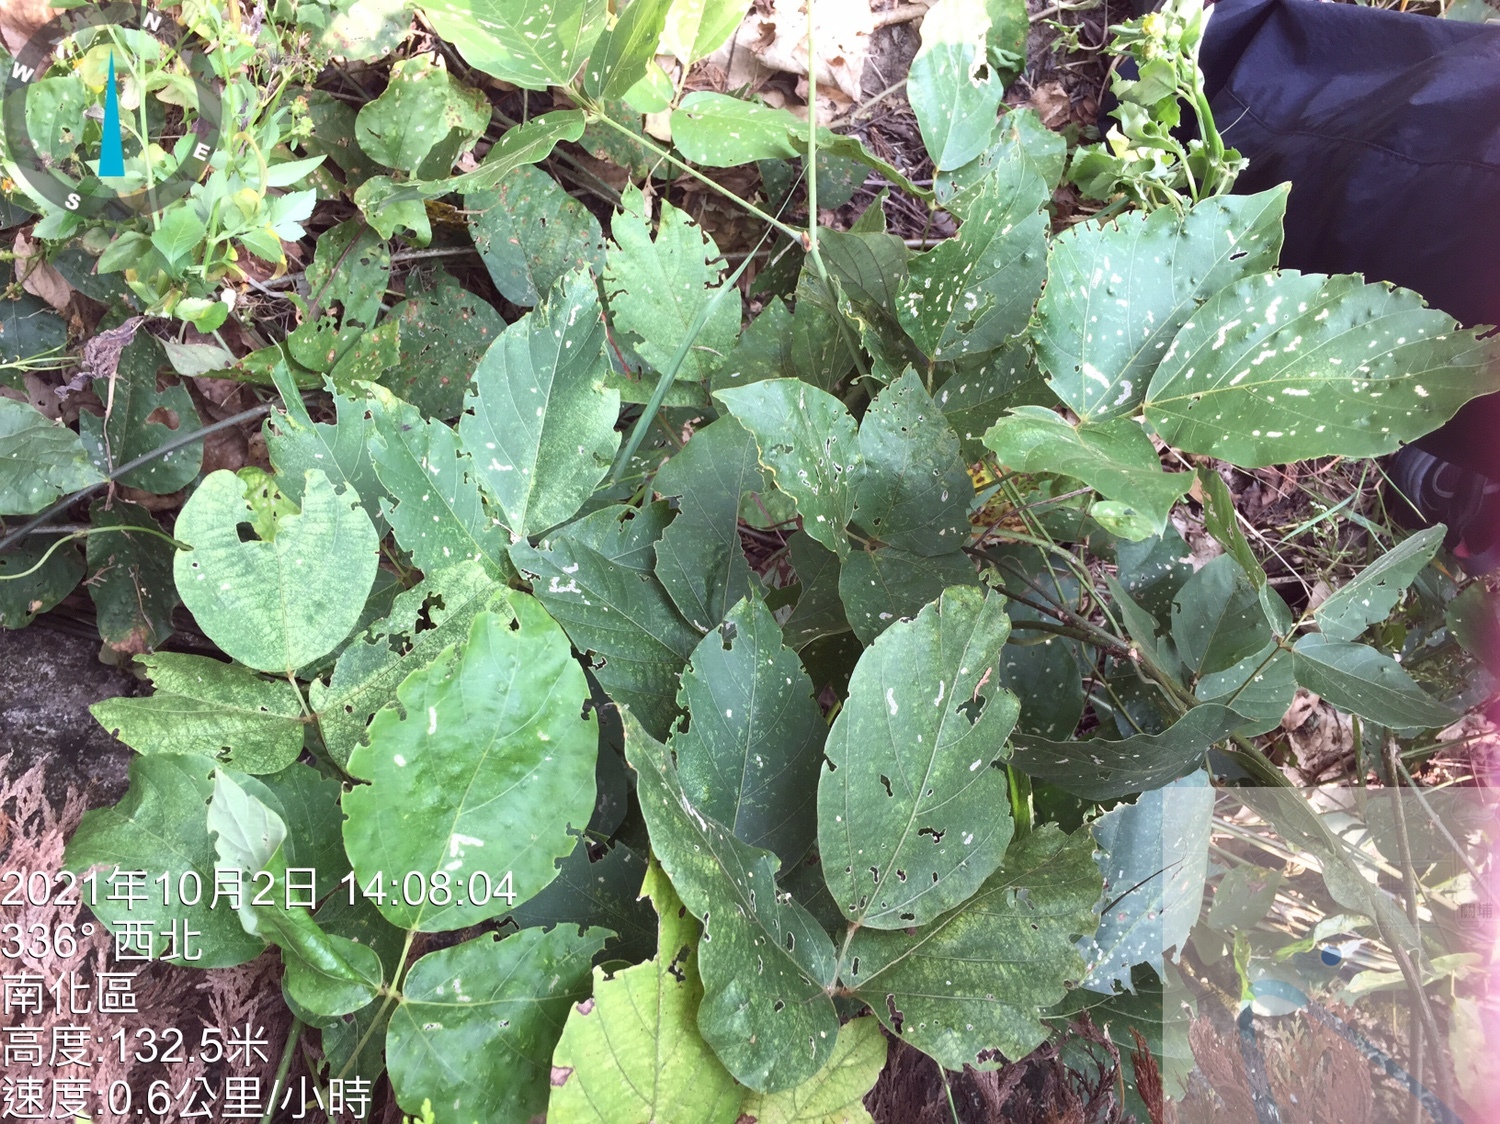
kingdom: Plantae
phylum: Tracheophyta
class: Magnoliopsida
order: Fabales
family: Fabaceae
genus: Pueraria
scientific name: Pueraria montana
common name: Kudzu
